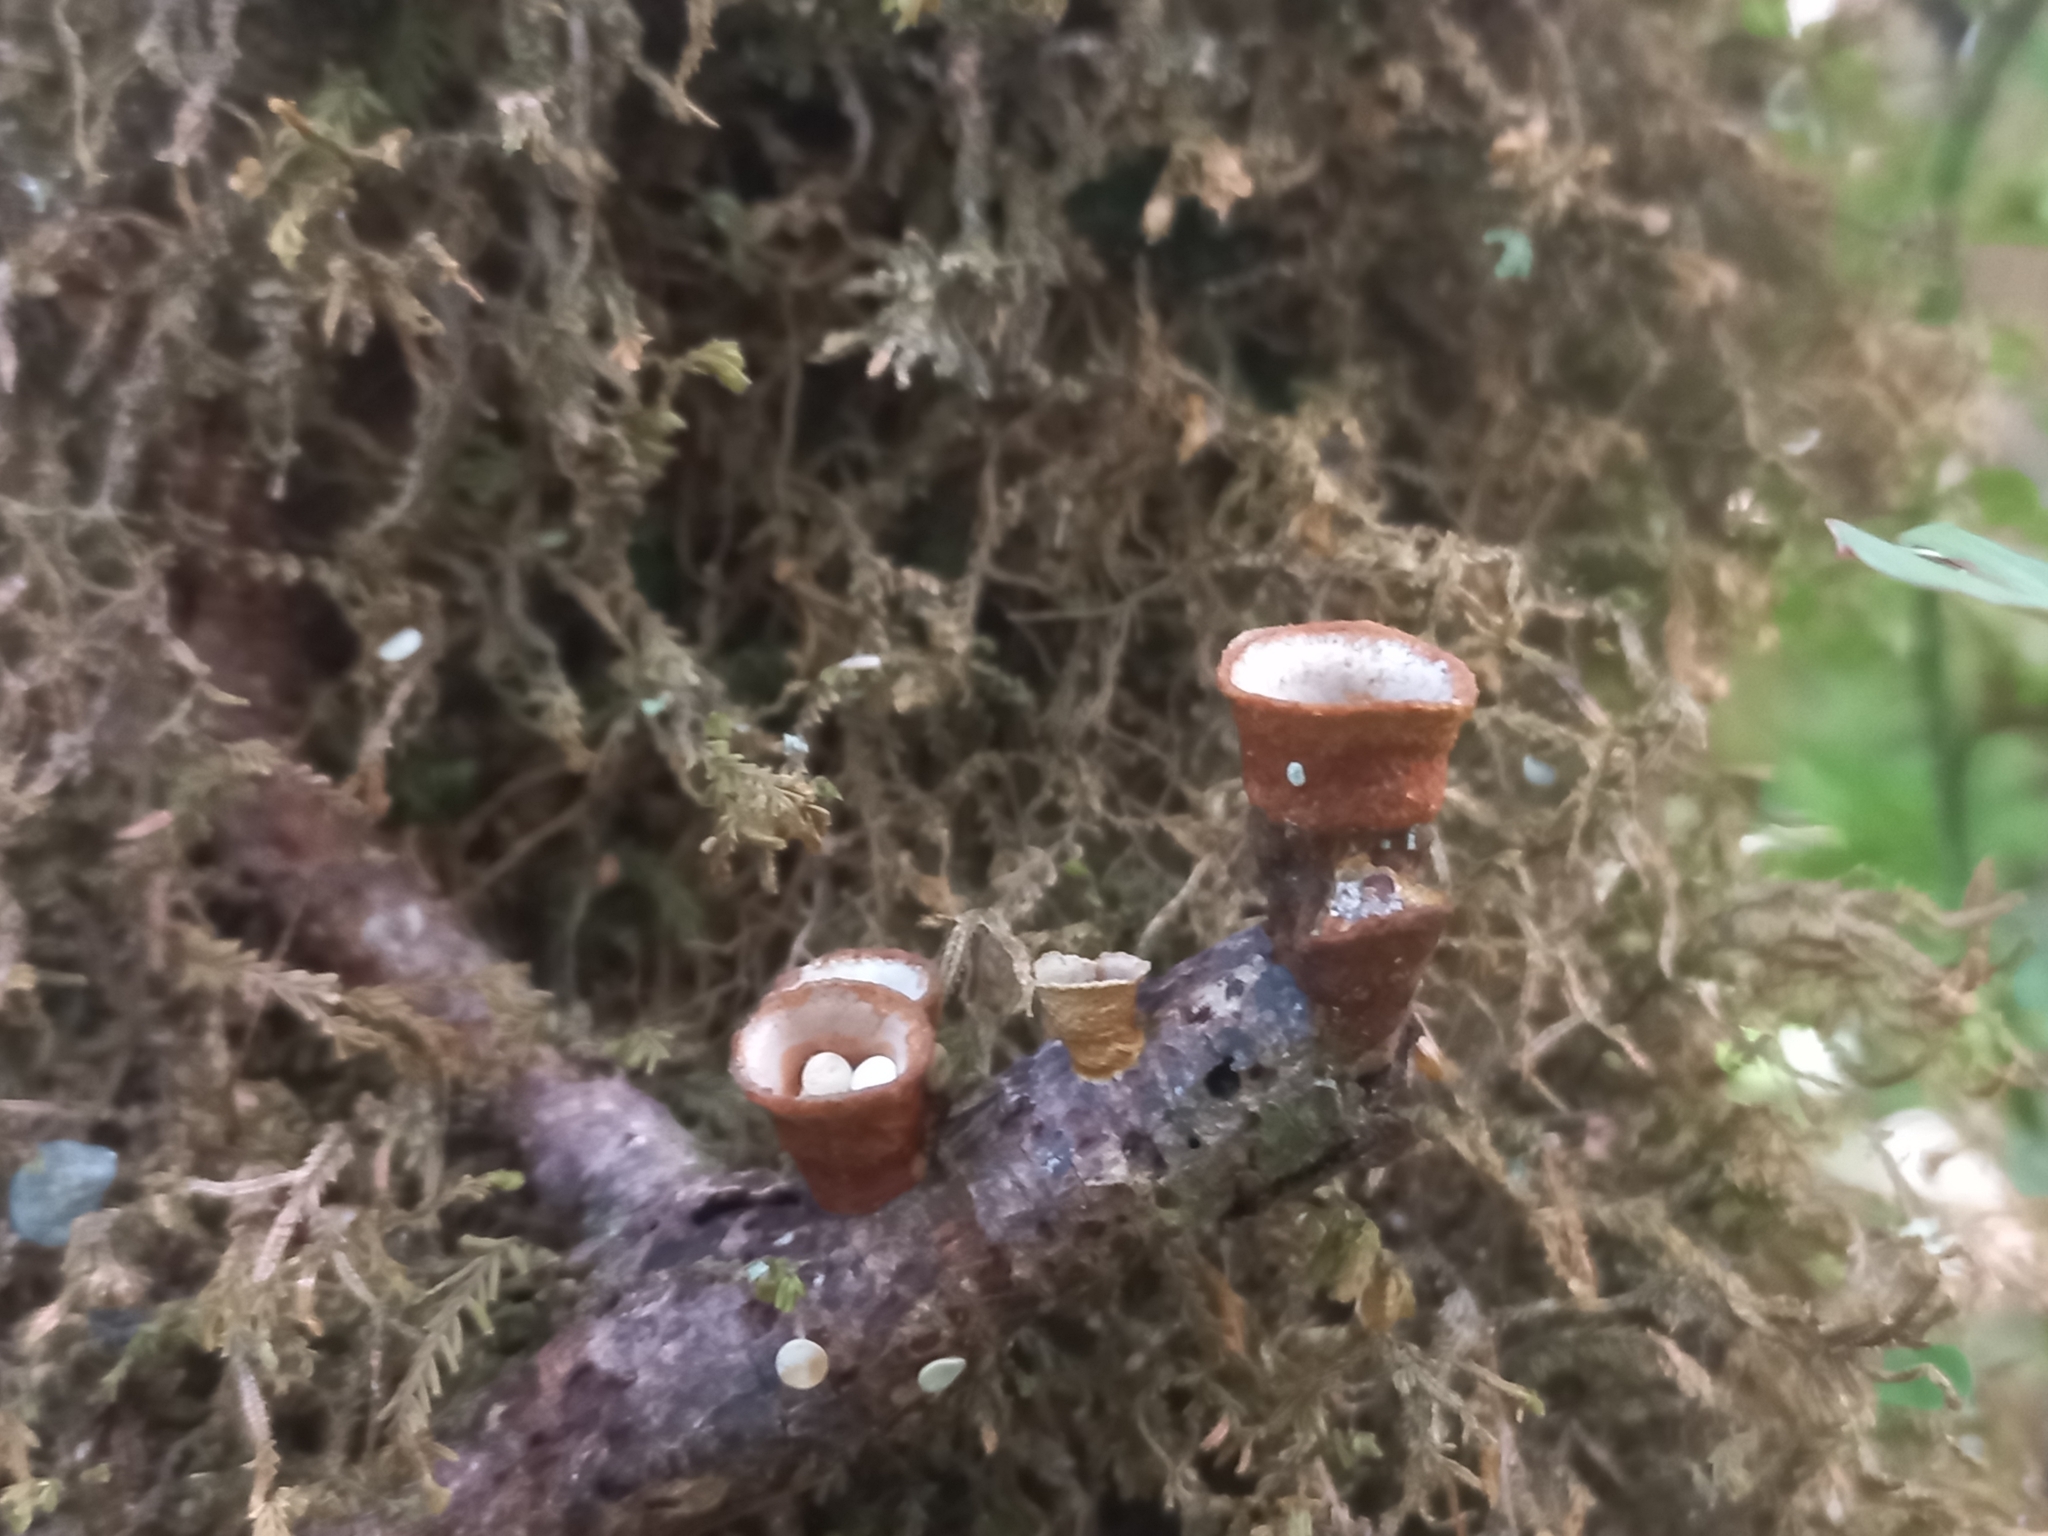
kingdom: Fungi
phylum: Basidiomycota
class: Agaricomycetes
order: Agaricales
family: Nidulariaceae
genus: Crucibulum
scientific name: Crucibulum simile
